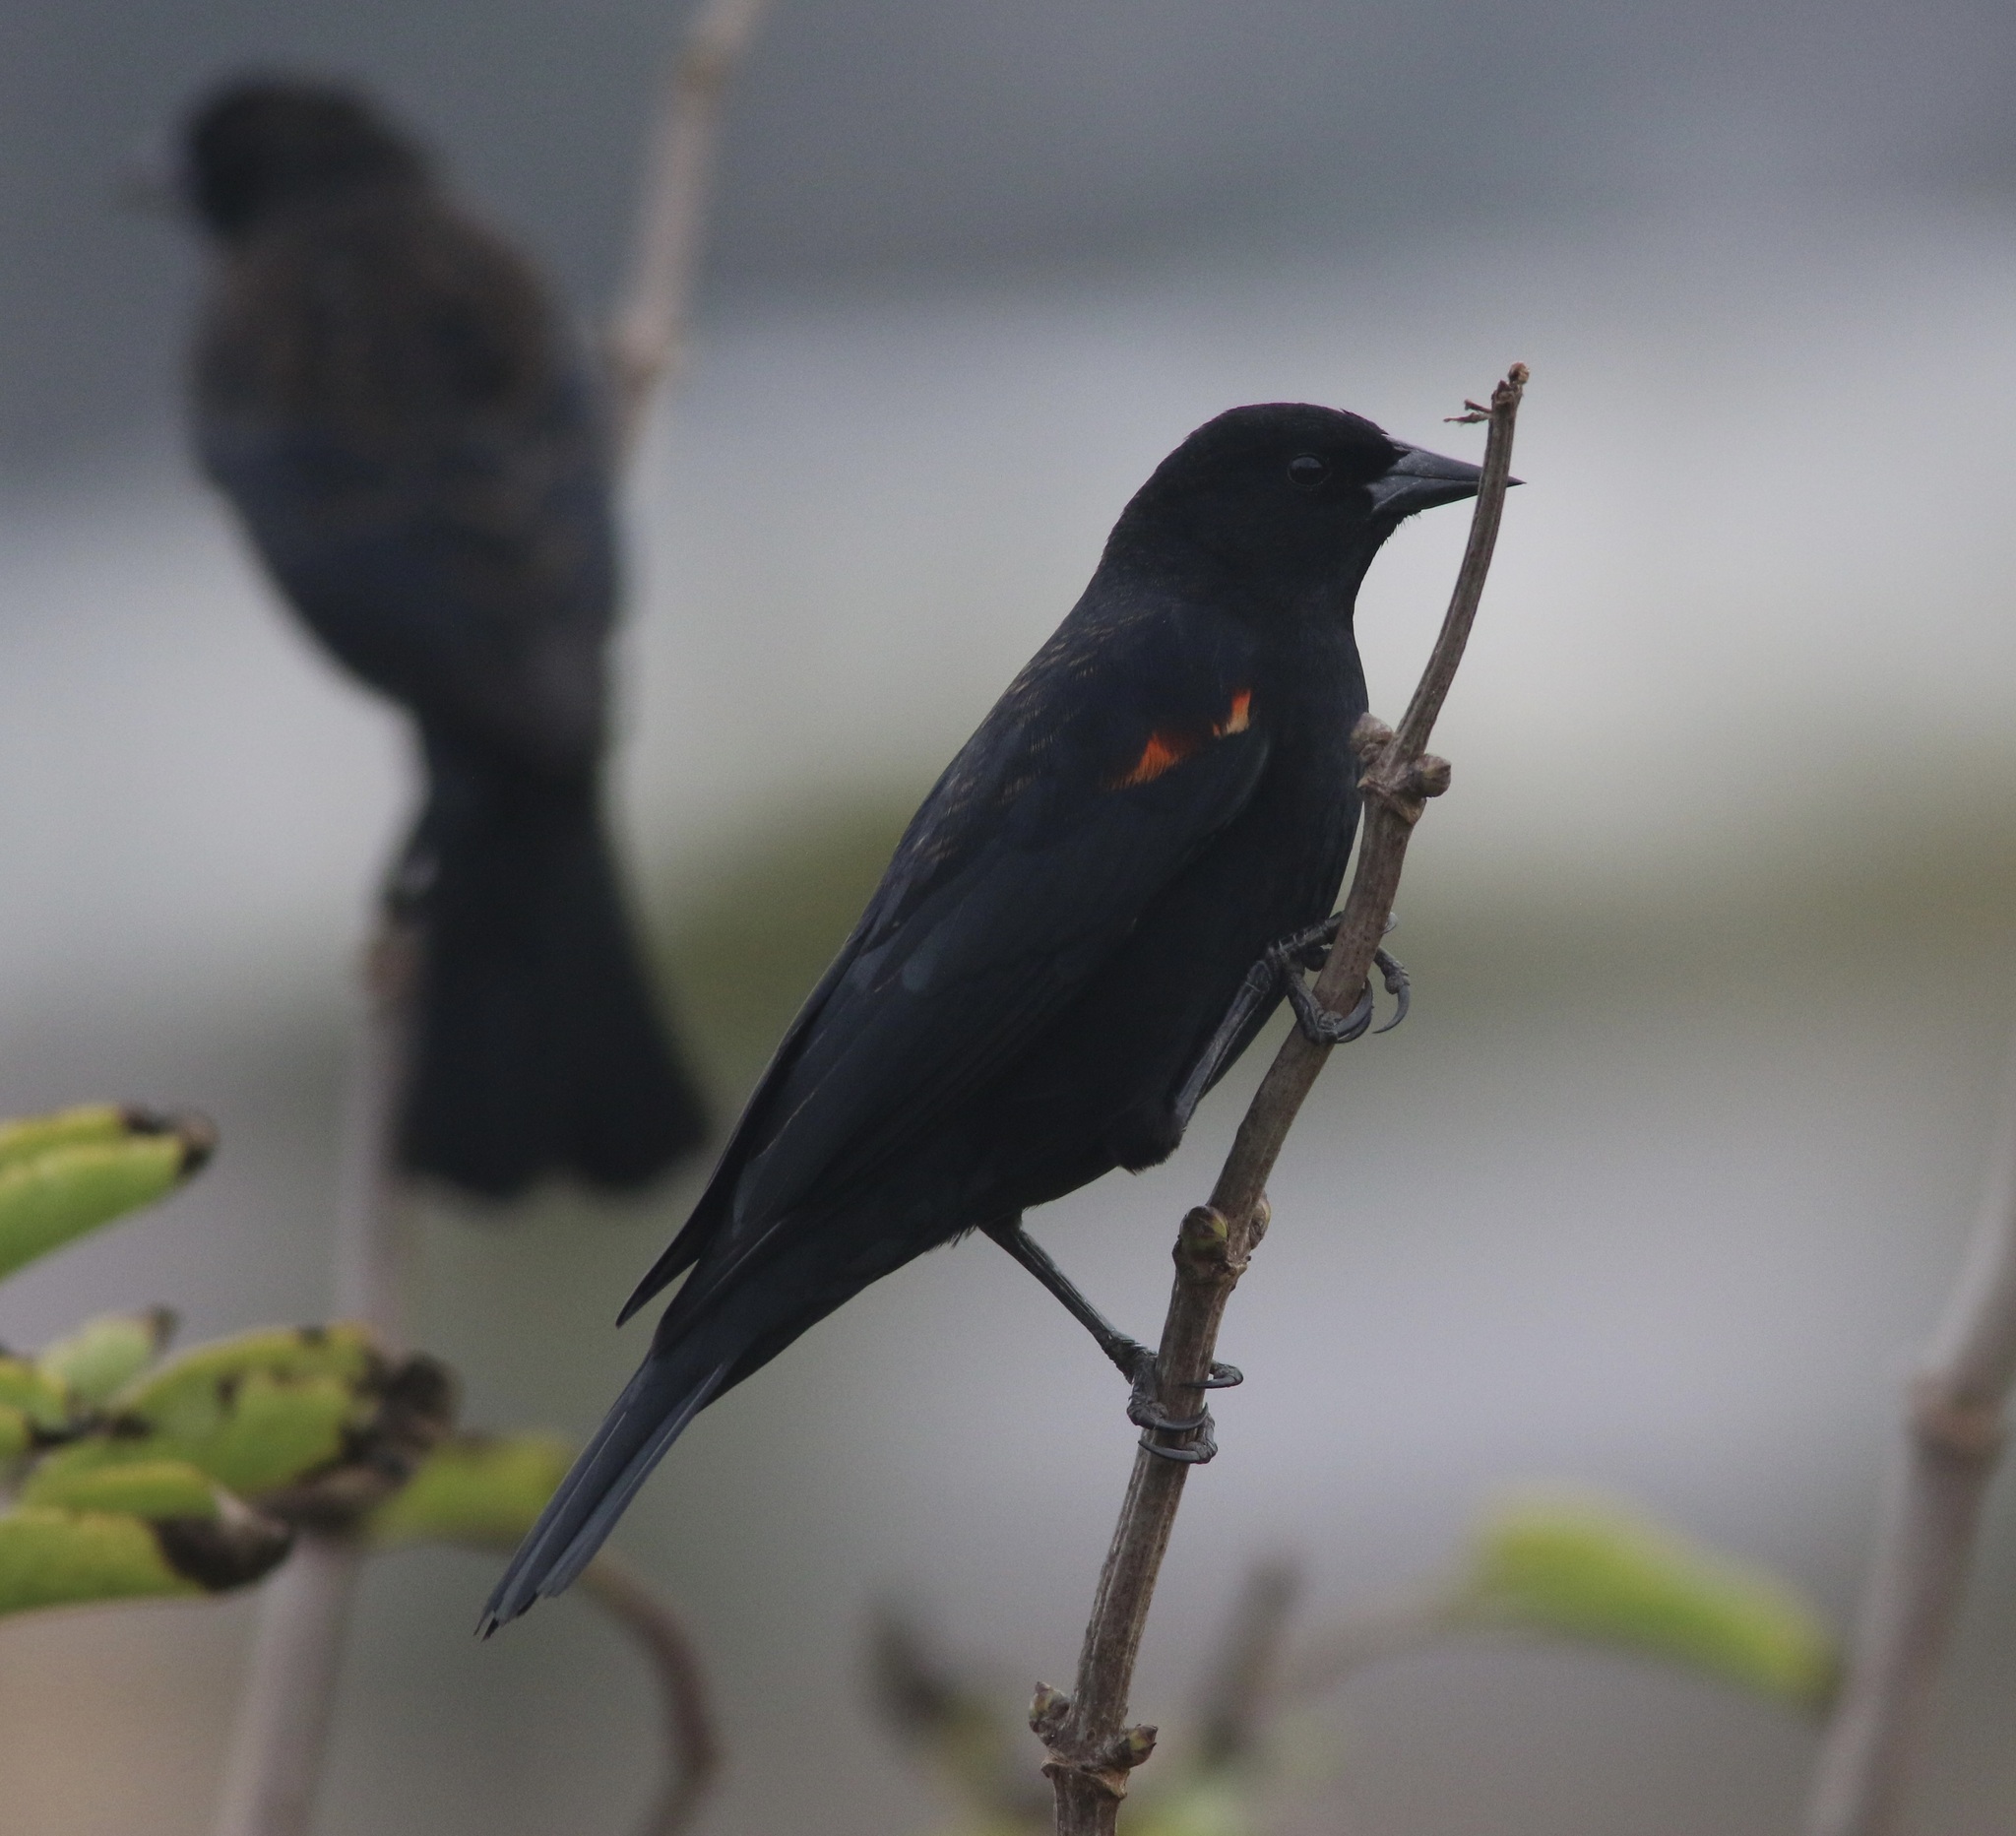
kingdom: Animalia
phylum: Chordata
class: Aves
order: Passeriformes
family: Icteridae
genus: Agelaius
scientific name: Agelaius phoeniceus
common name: Red-winged blackbird
